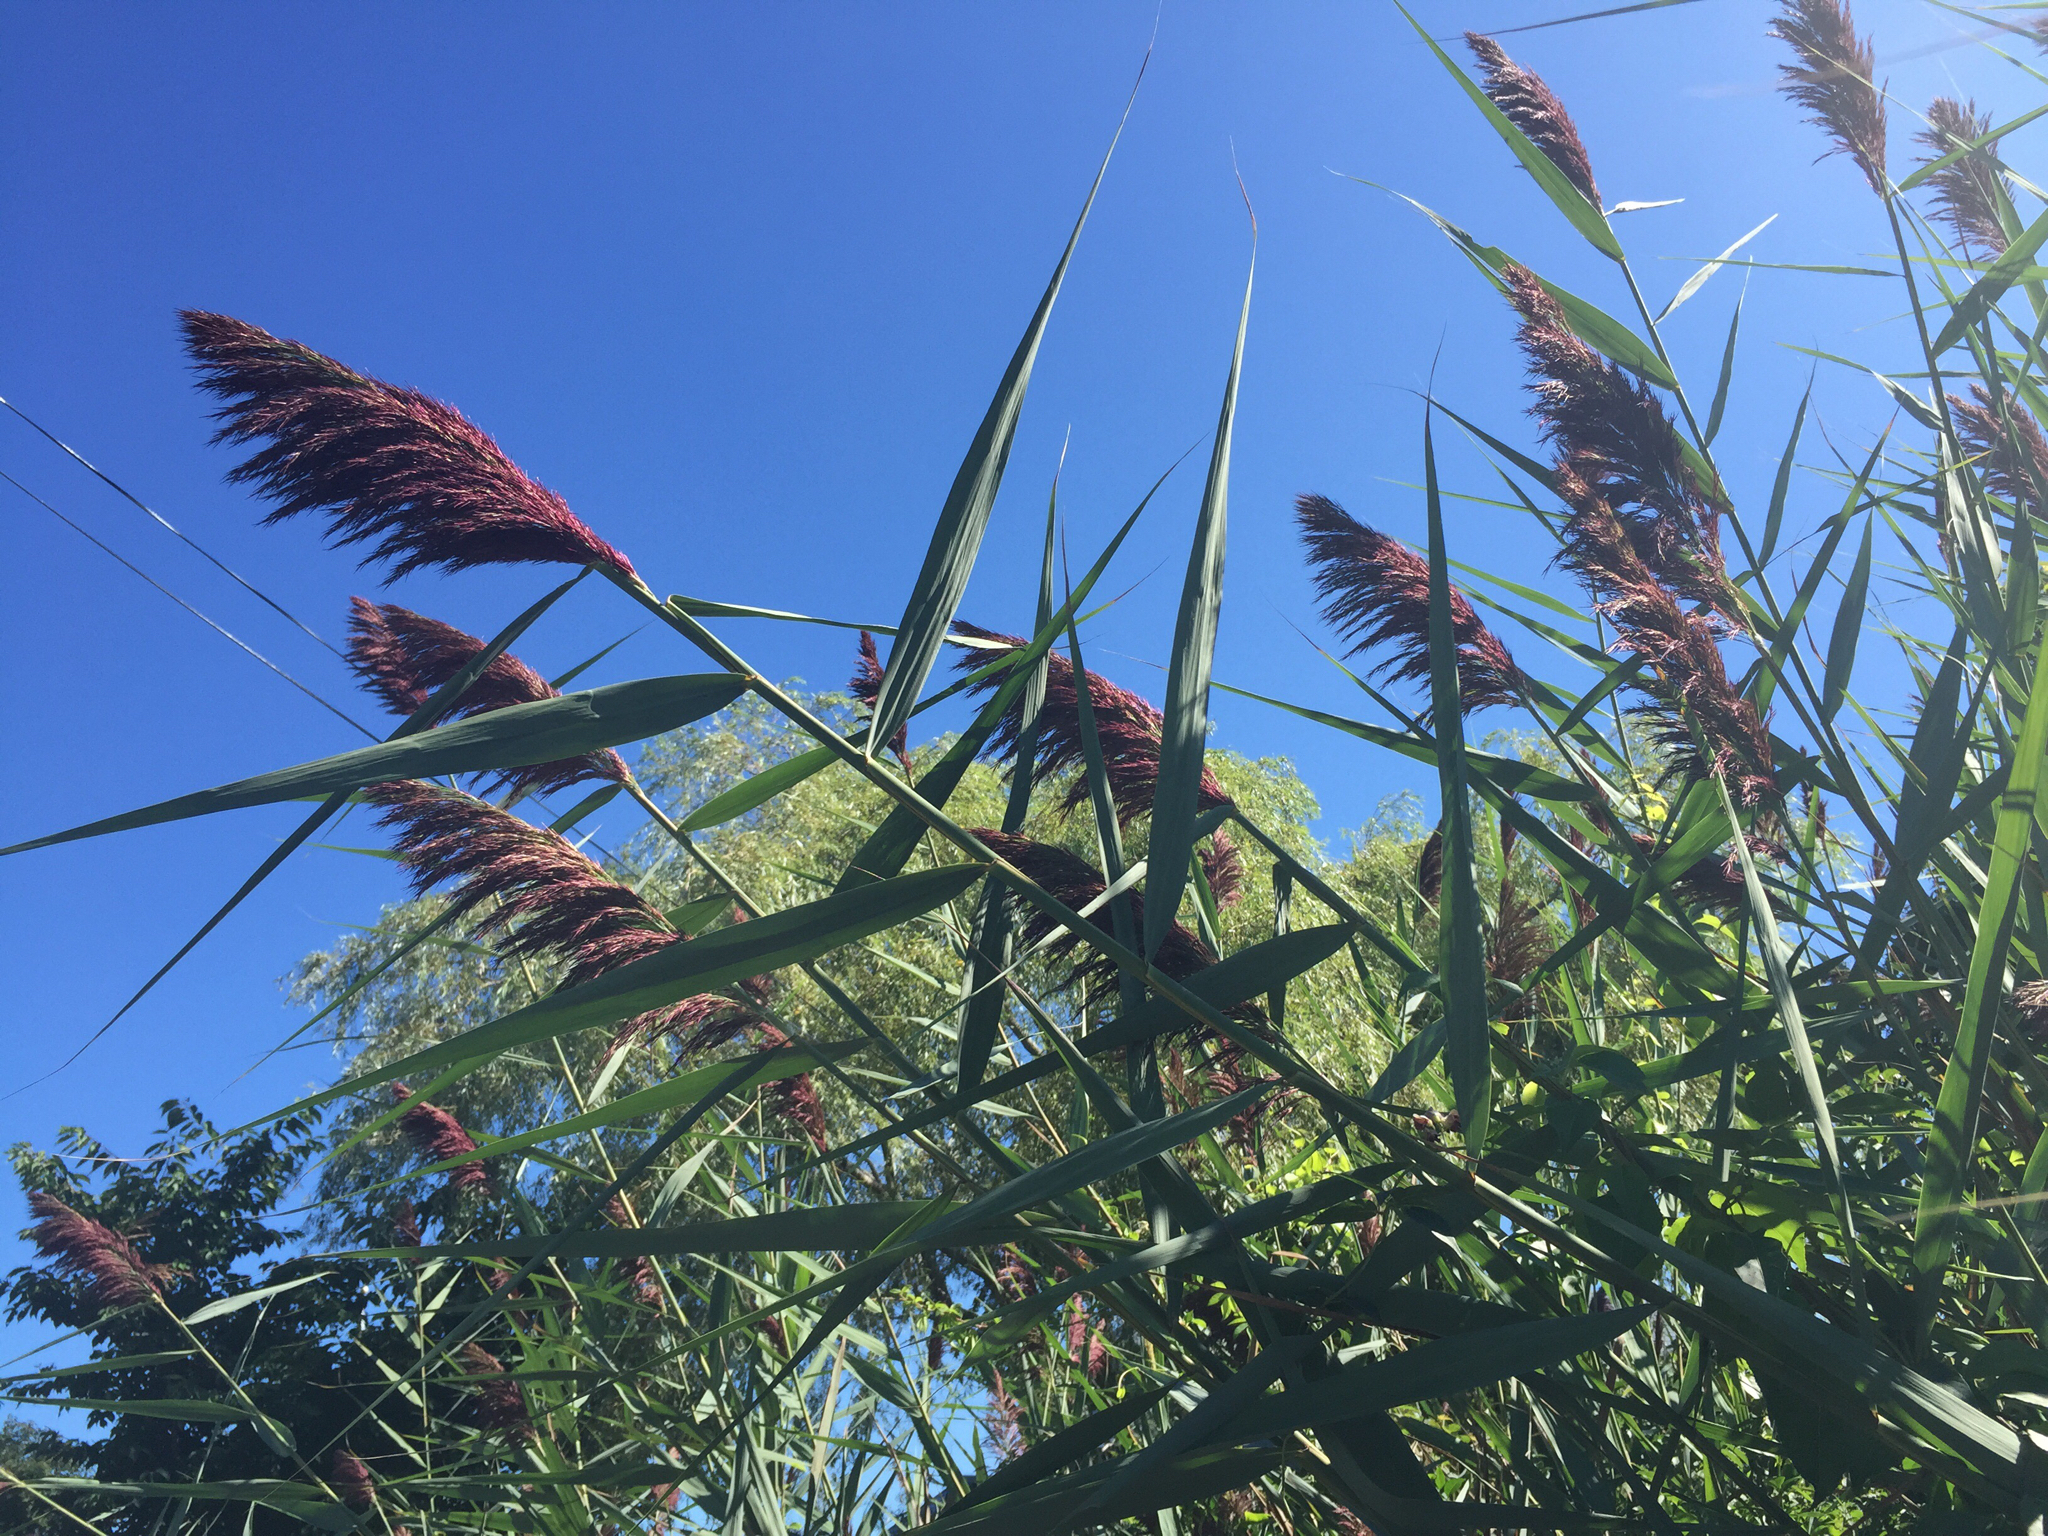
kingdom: Plantae
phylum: Tracheophyta
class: Liliopsida
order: Poales
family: Poaceae
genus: Phragmites
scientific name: Phragmites australis
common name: Common reed
